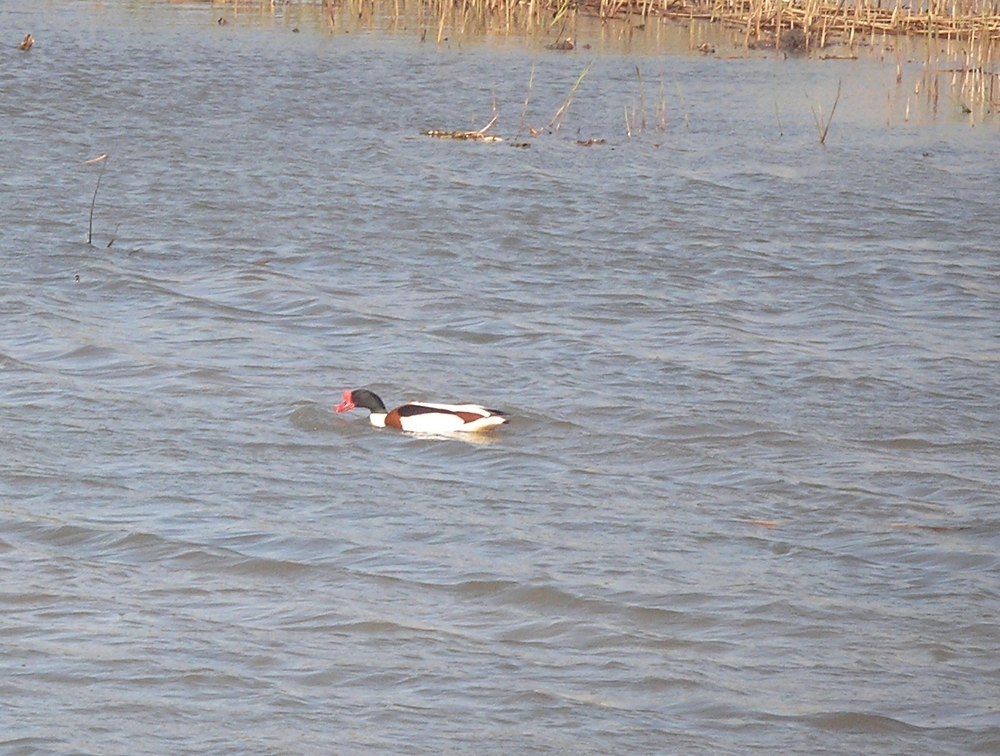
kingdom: Animalia
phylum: Chordata
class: Aves
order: Anseriformes
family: Anatidae
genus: Tadorna
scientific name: Tadorna tadorna
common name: Common shelduck
